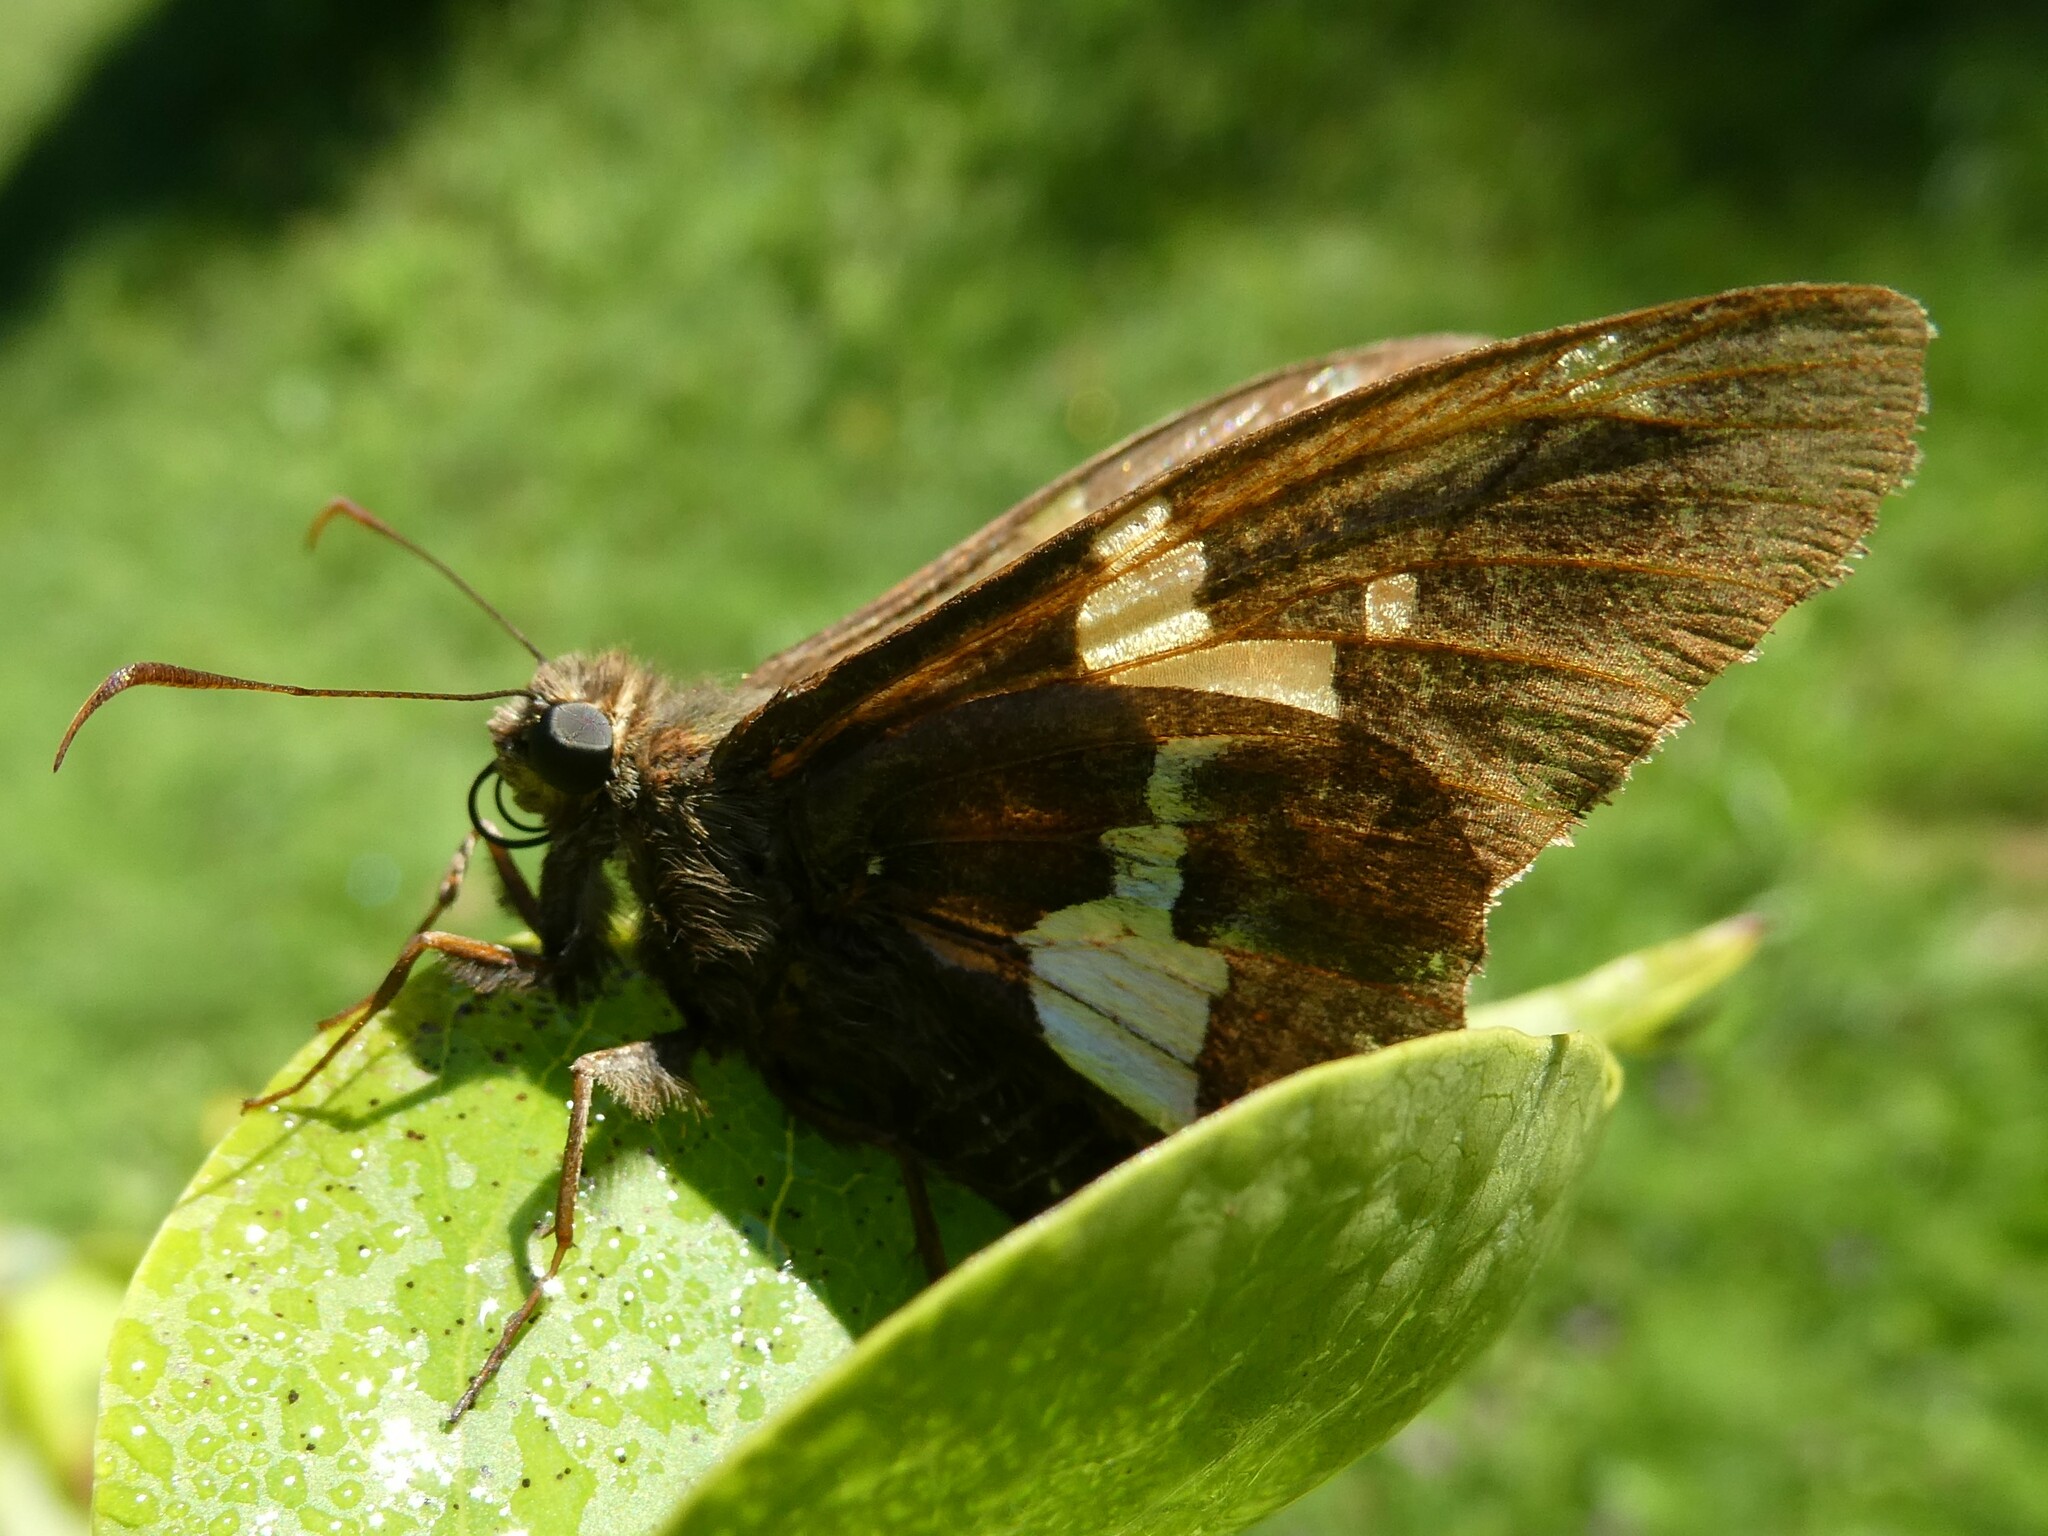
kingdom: Animalia
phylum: Arthropoda
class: Insecta
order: Lepidoptera
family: Hesperiidae
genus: Epargyreus
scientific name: Epargyreus clarus
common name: Silver-spotted skipper
